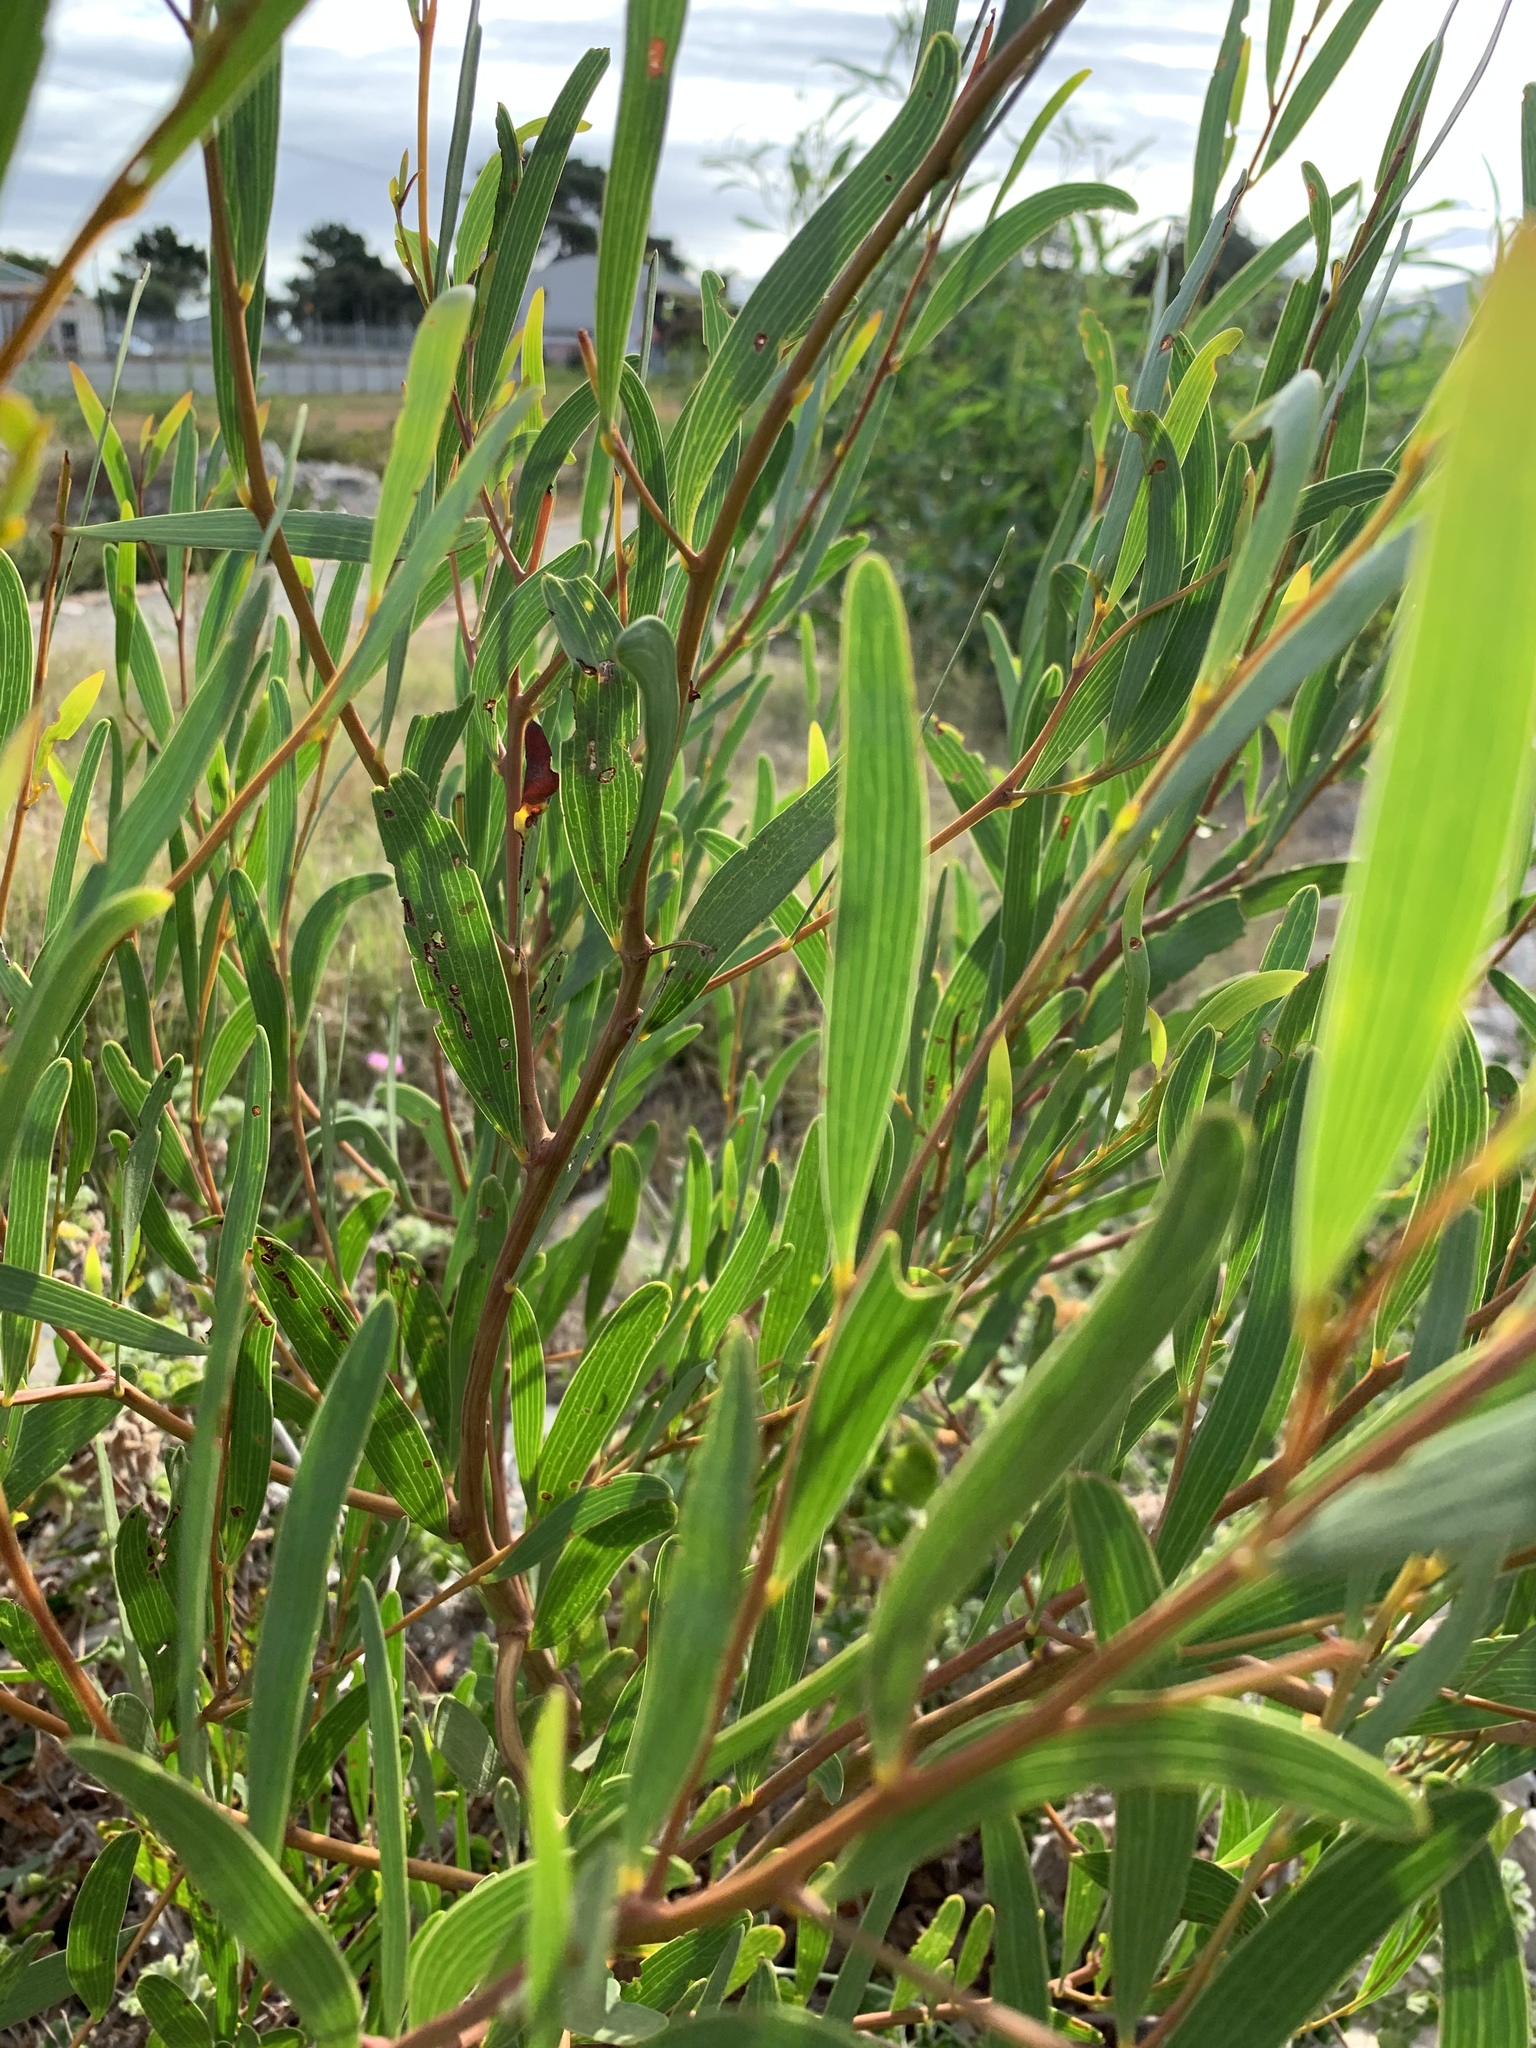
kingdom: Plantae
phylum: Tracheophyta
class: Magnoliopsida
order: Fabales
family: Fabaceae
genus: Acacia
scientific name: Acacia cyclops
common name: Coastal wattle
